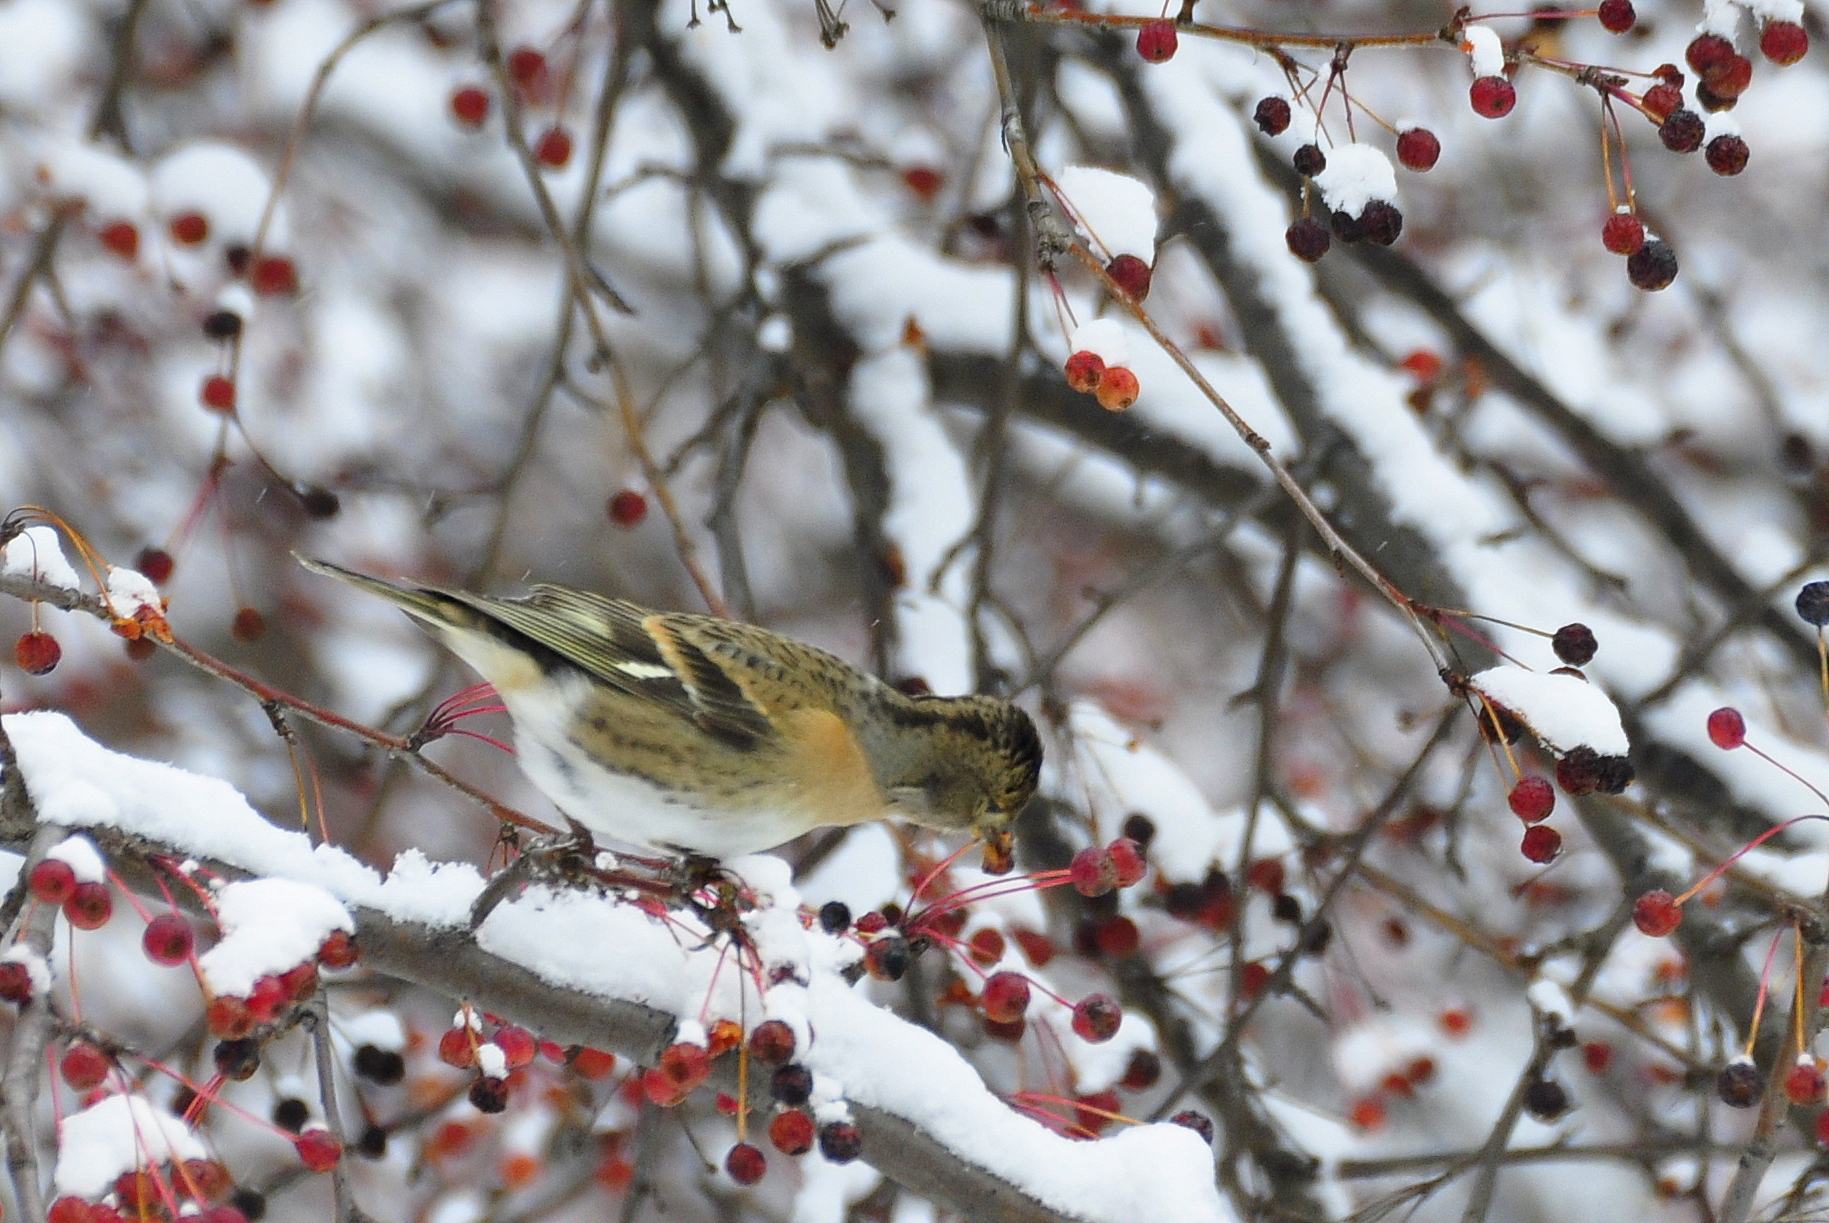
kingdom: Animalia
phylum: Chordata
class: Aves
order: Passeriformes
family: Fringillidae
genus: Fringilla
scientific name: Fringilla montifringilla
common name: Brambling
